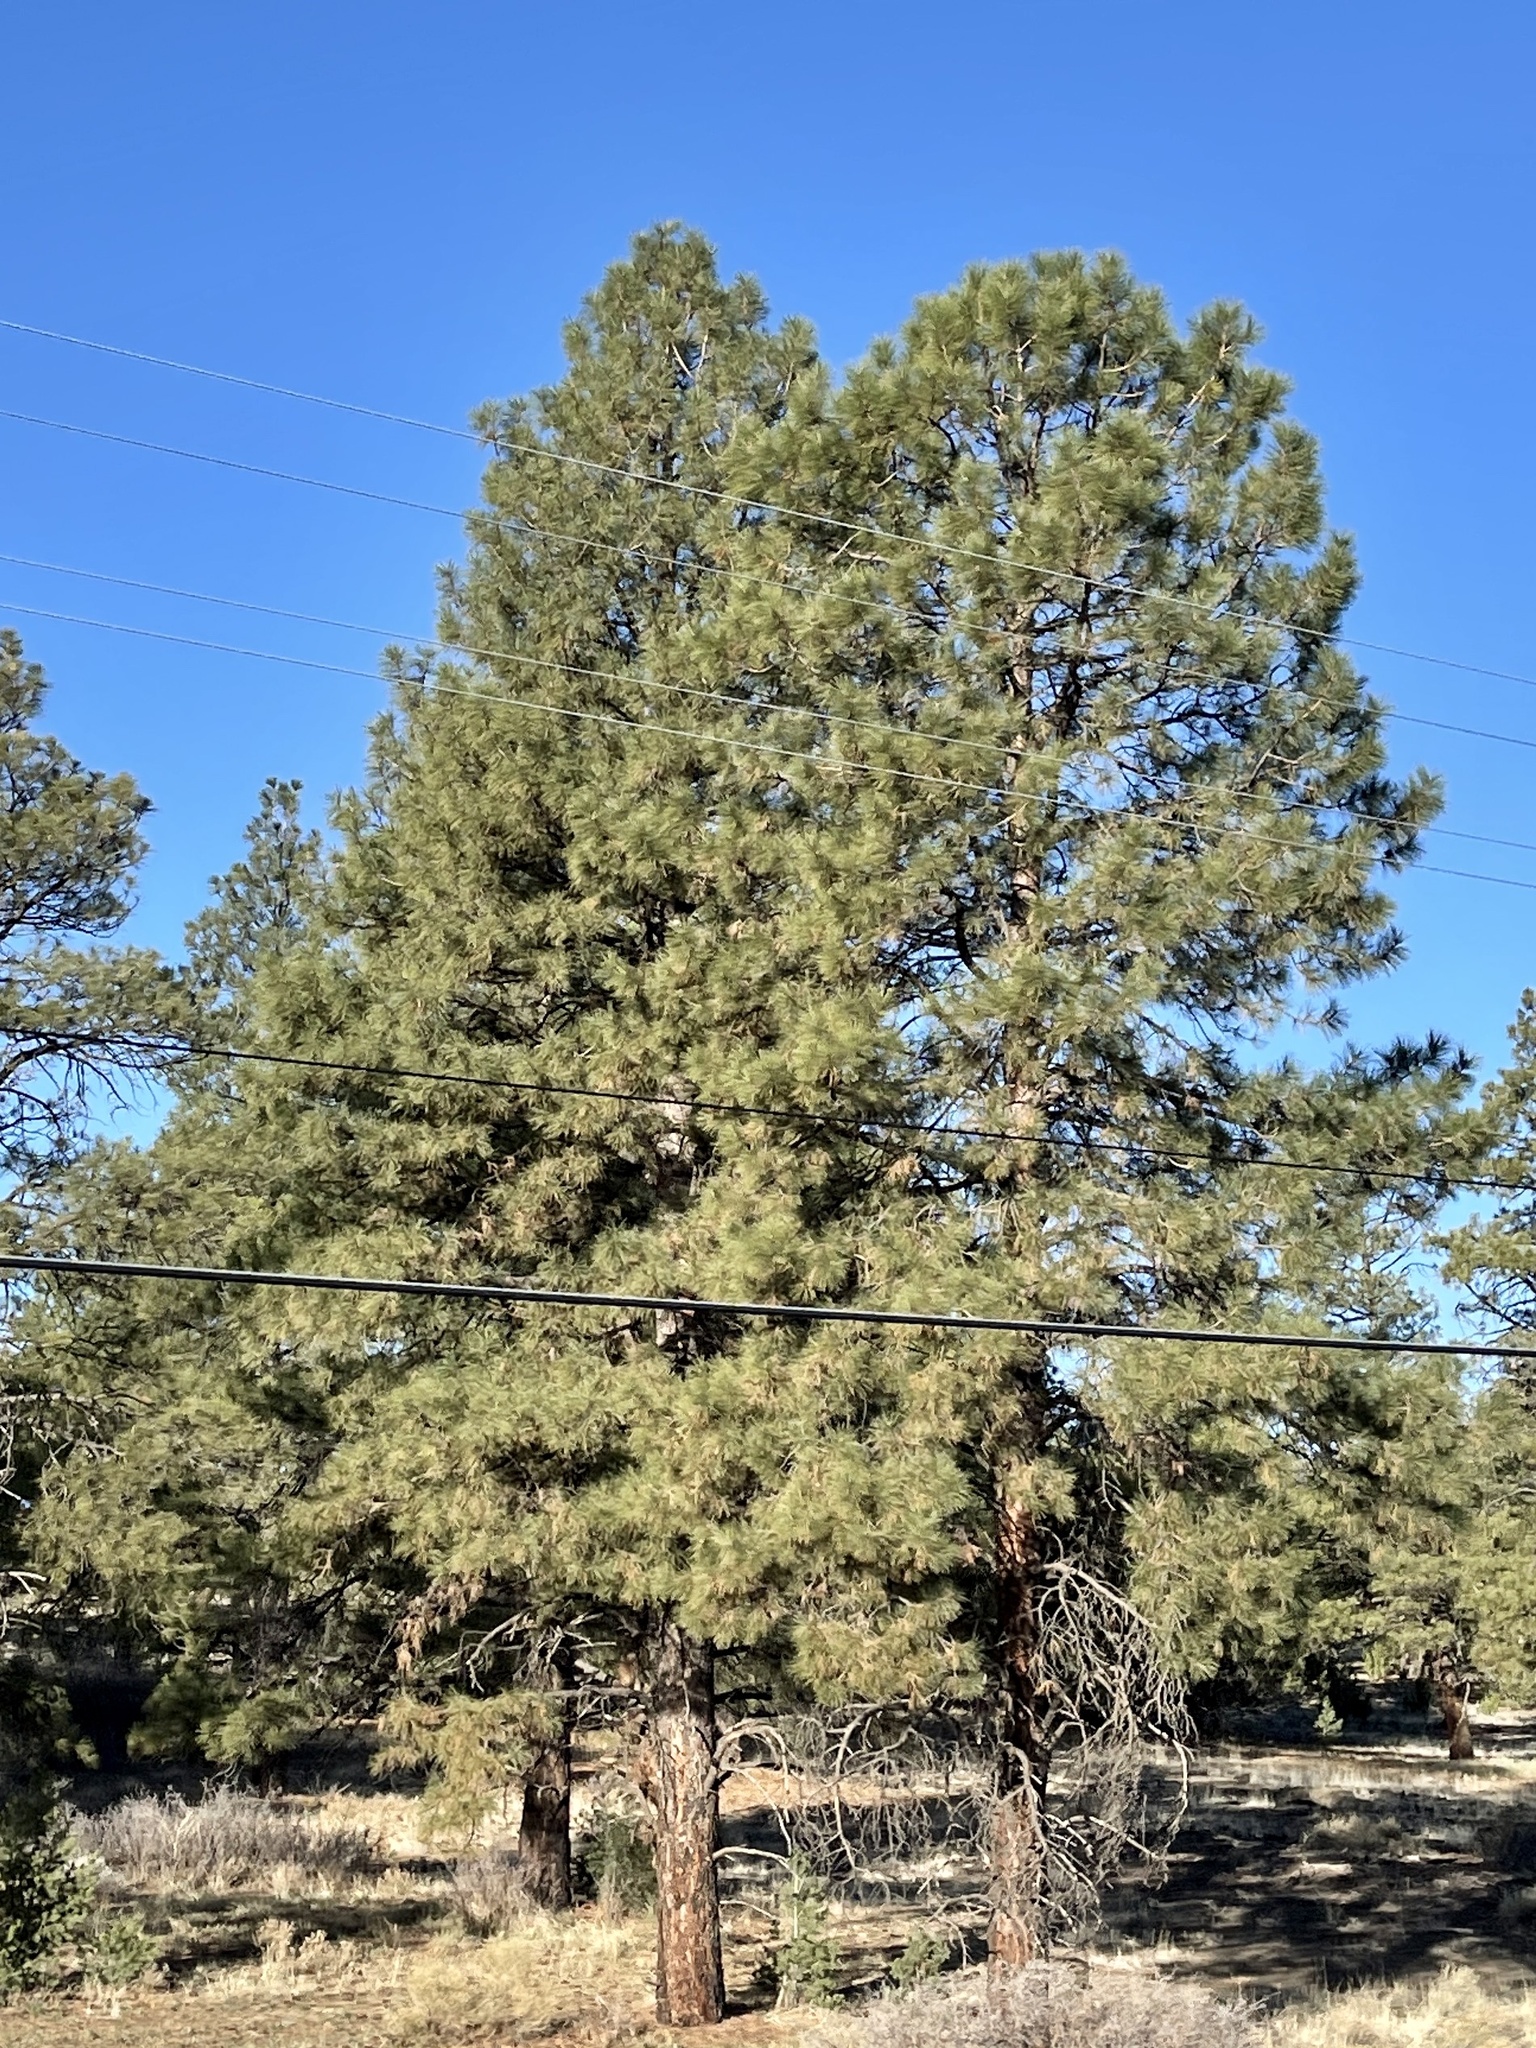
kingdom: Plantae
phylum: Tracheophyta
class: Pinopsida
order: Pinales
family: Pinaceae
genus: Pinus
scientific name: Pinus ponderosa
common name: Western yellow-pine
